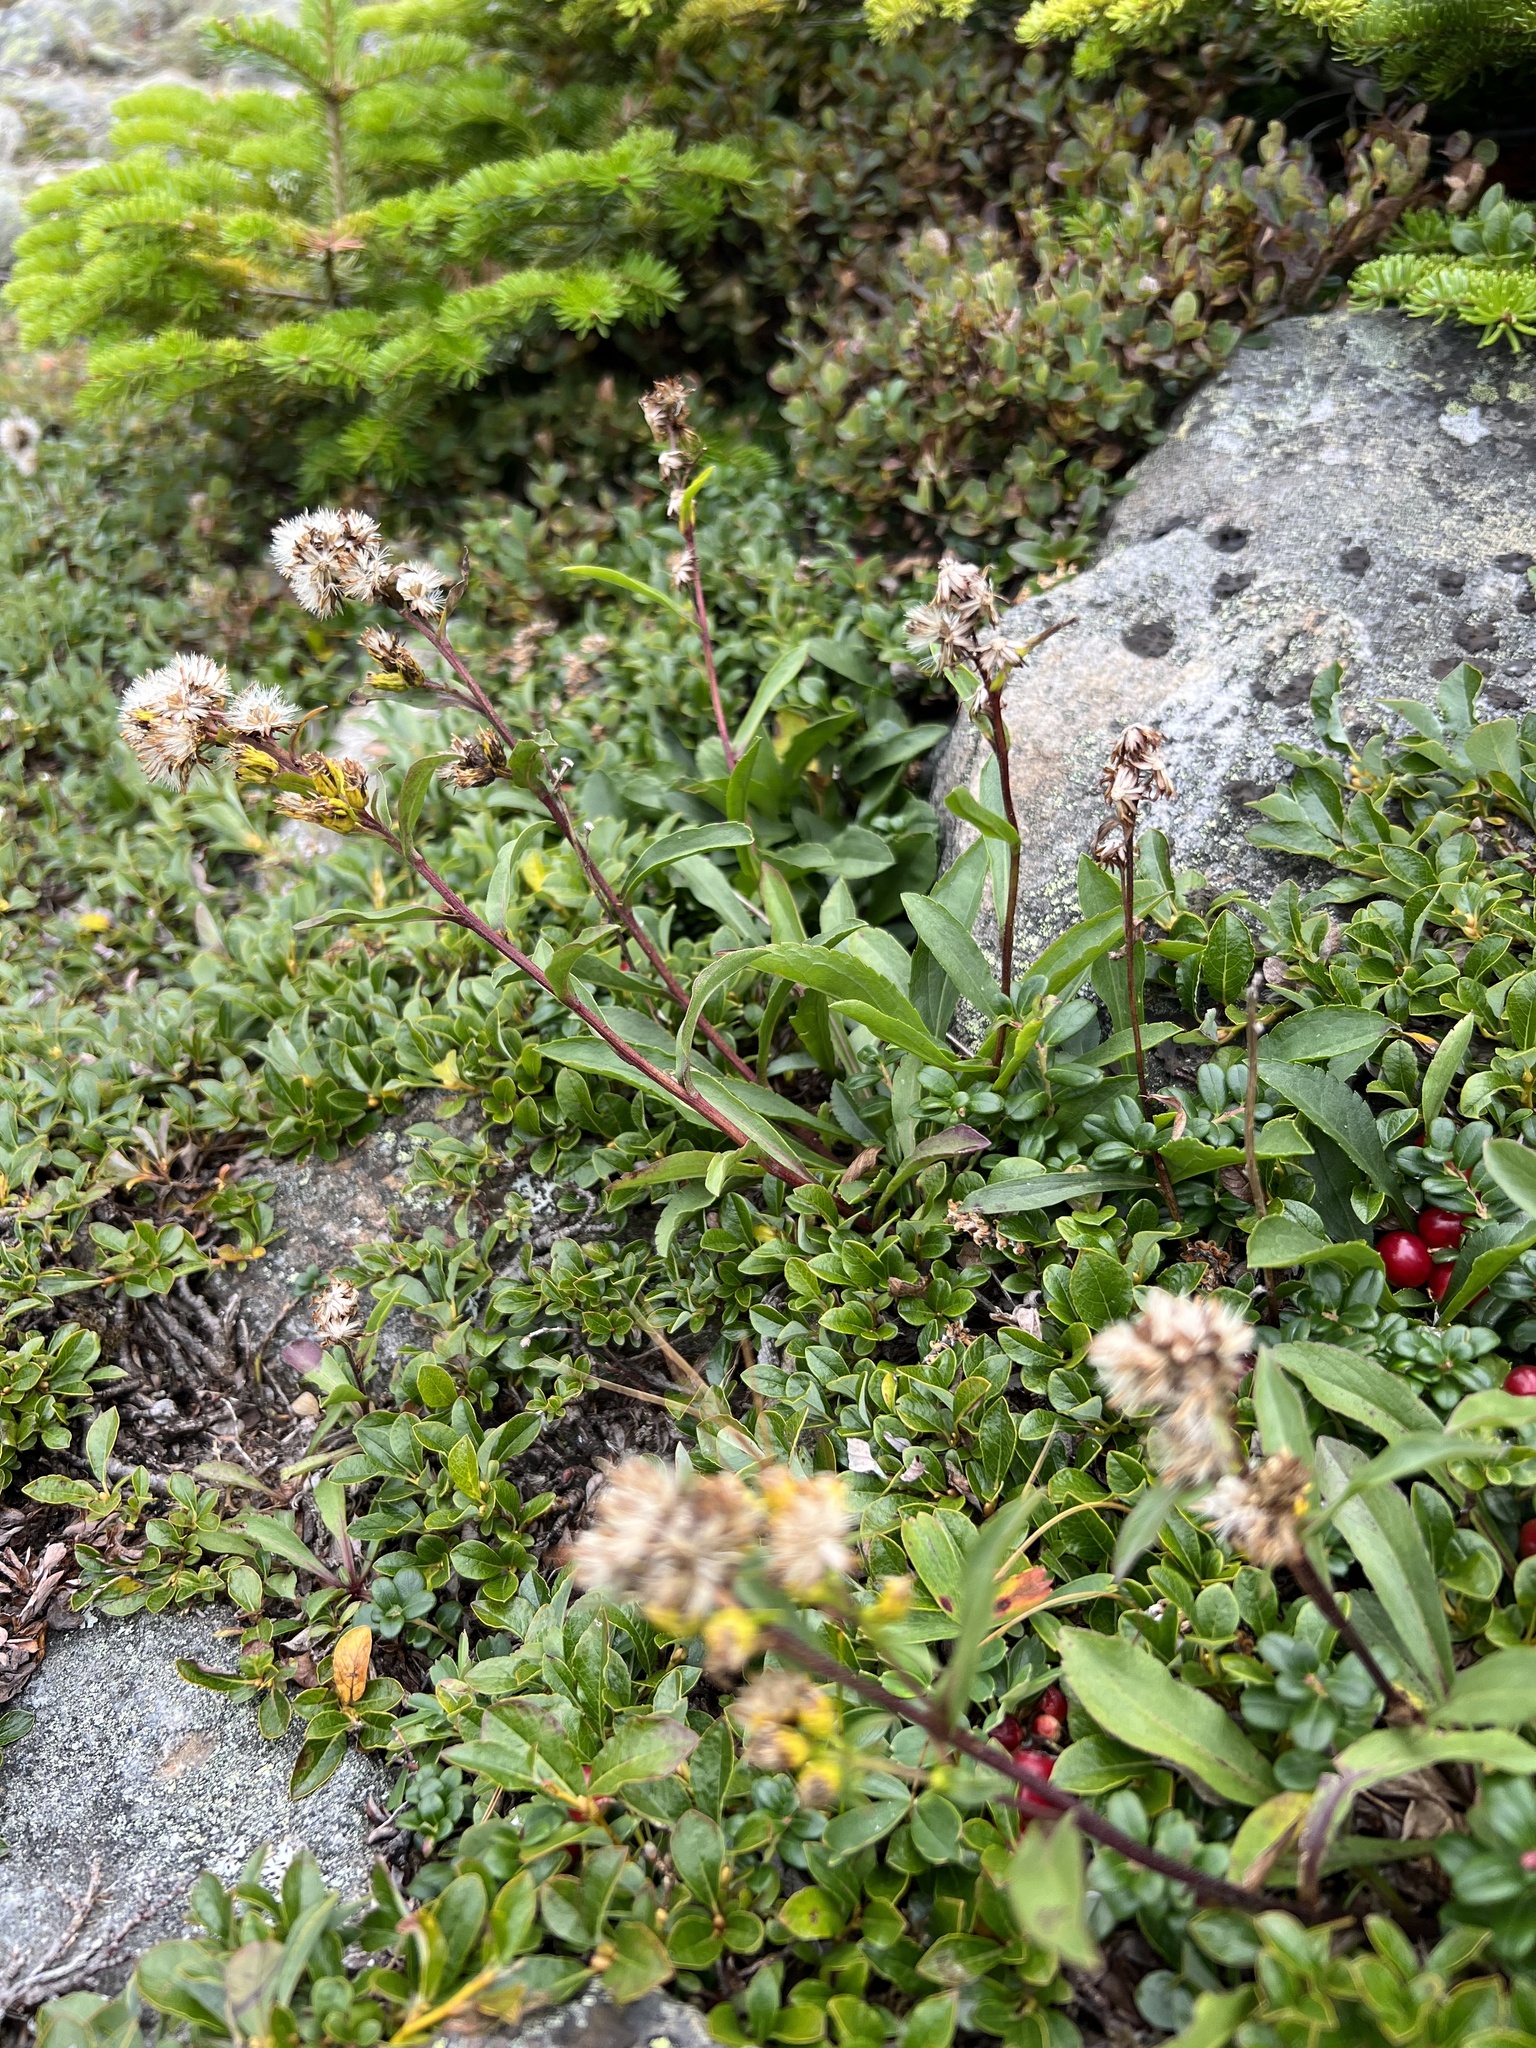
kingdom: Plantae
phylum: Tracheophyta
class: Magnoliopsida
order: Asterales
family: Asteraceae
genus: Solidago
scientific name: Solidago leiocarpa
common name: Cutler's alpine goldenrod
